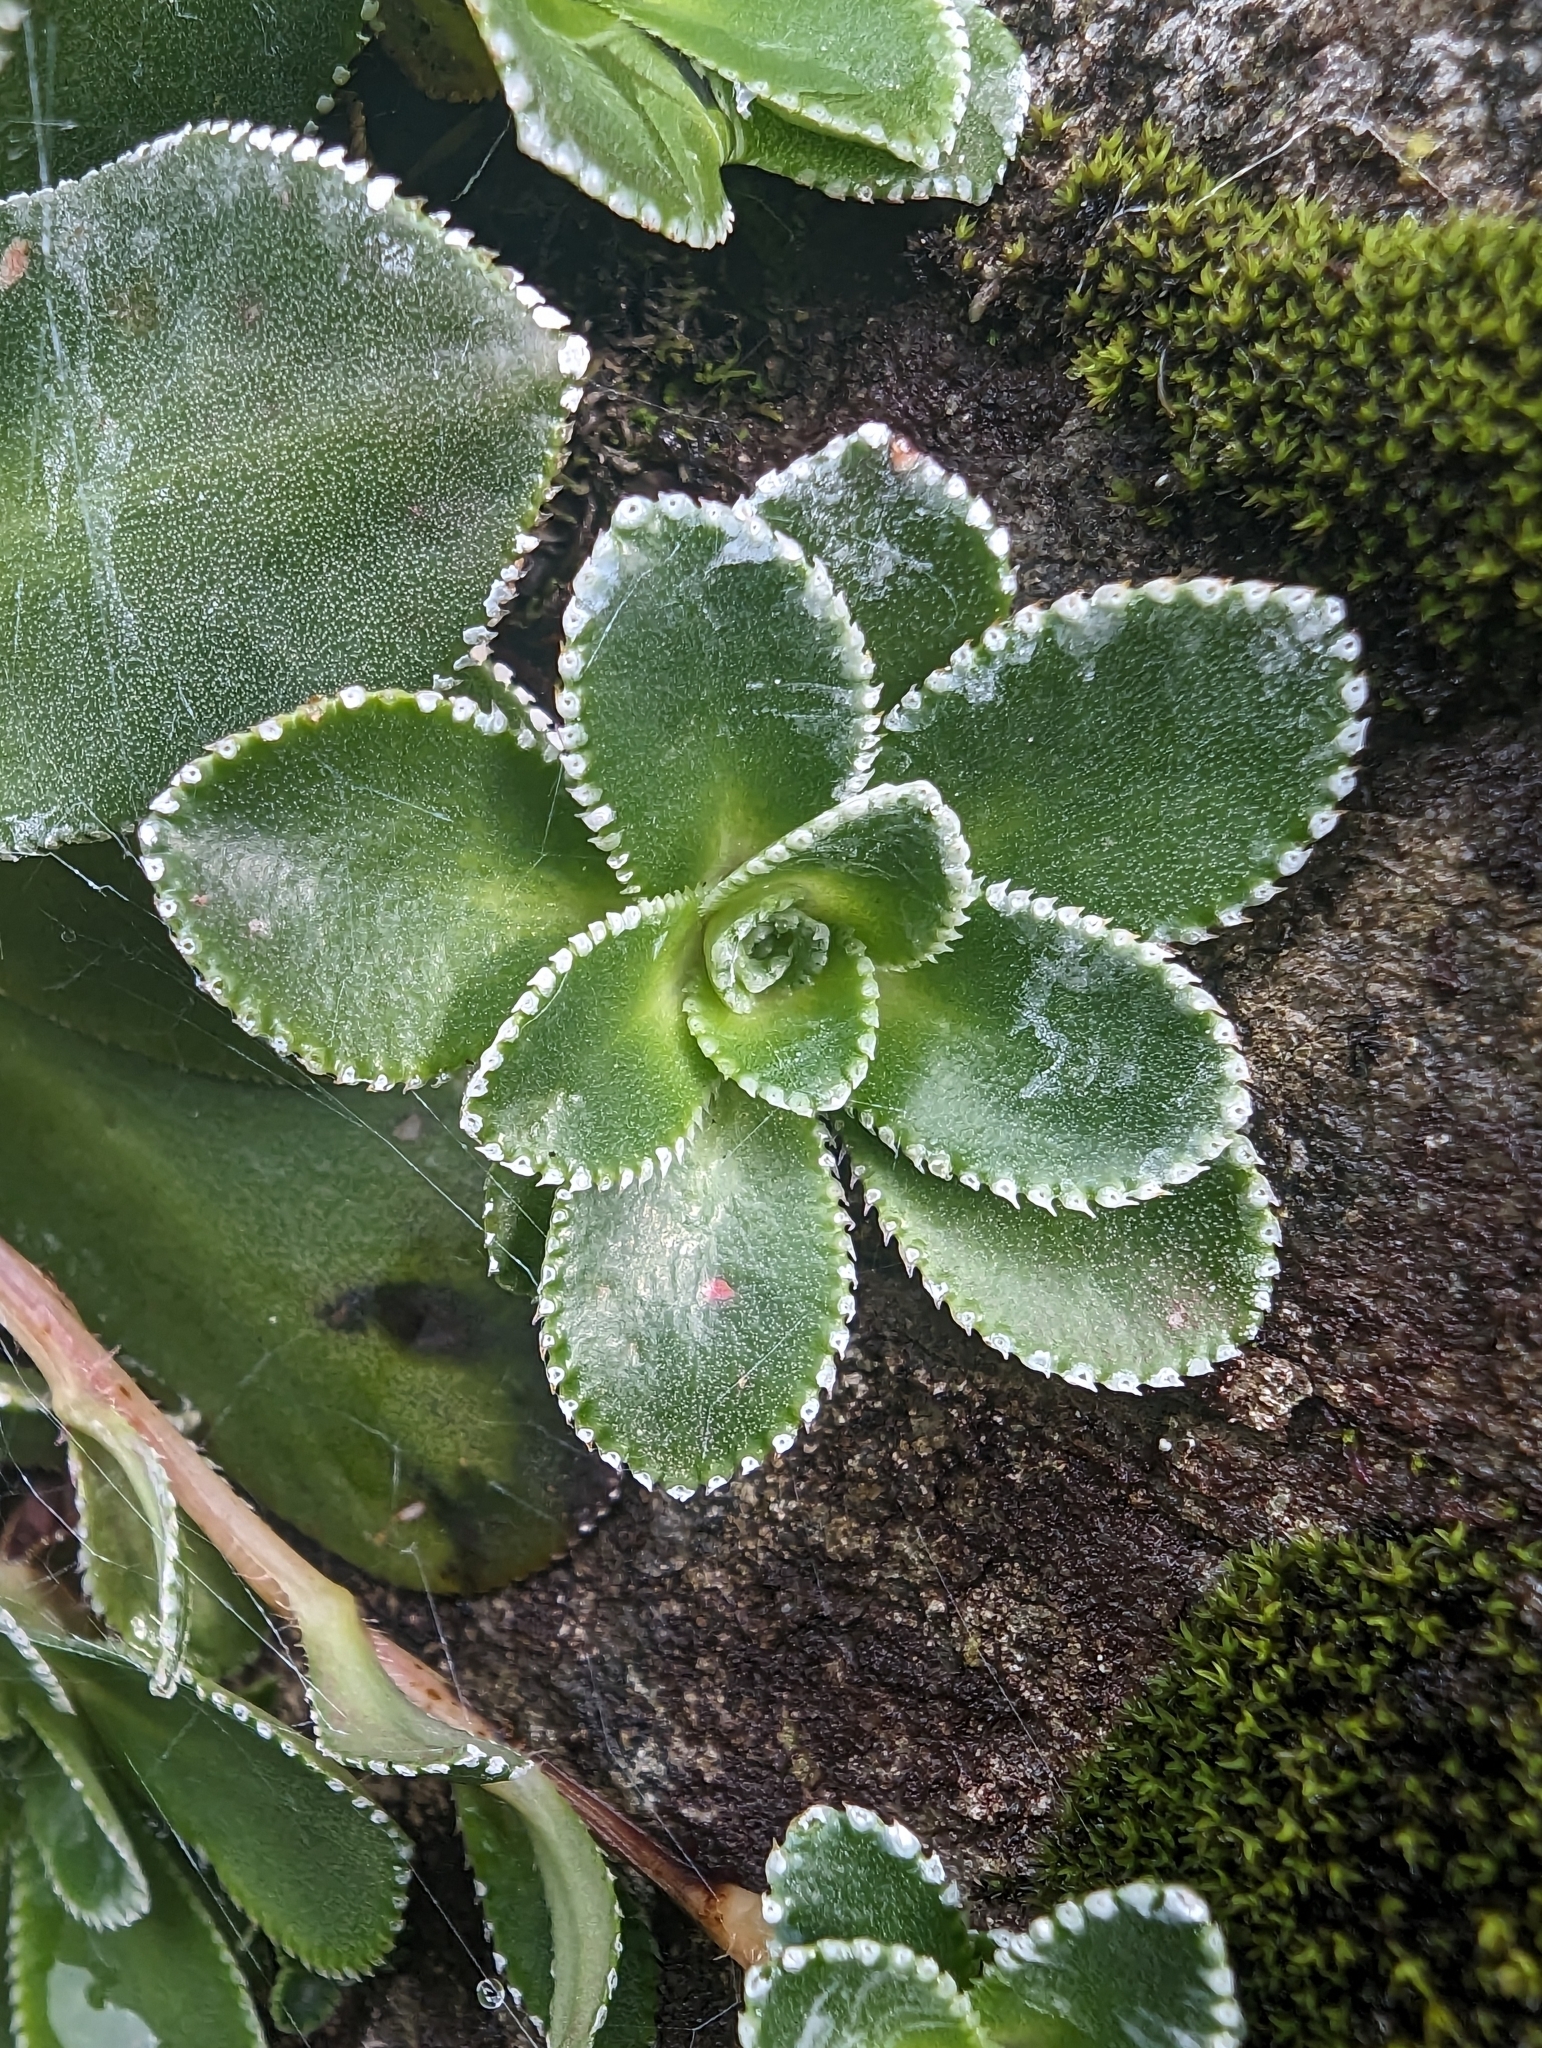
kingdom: Plantae
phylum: Tracheophyta
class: Magnoliopsida
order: Saxifragales
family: Saxifragaceae
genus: Saxifraga
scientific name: Saxifraga cotyledon
